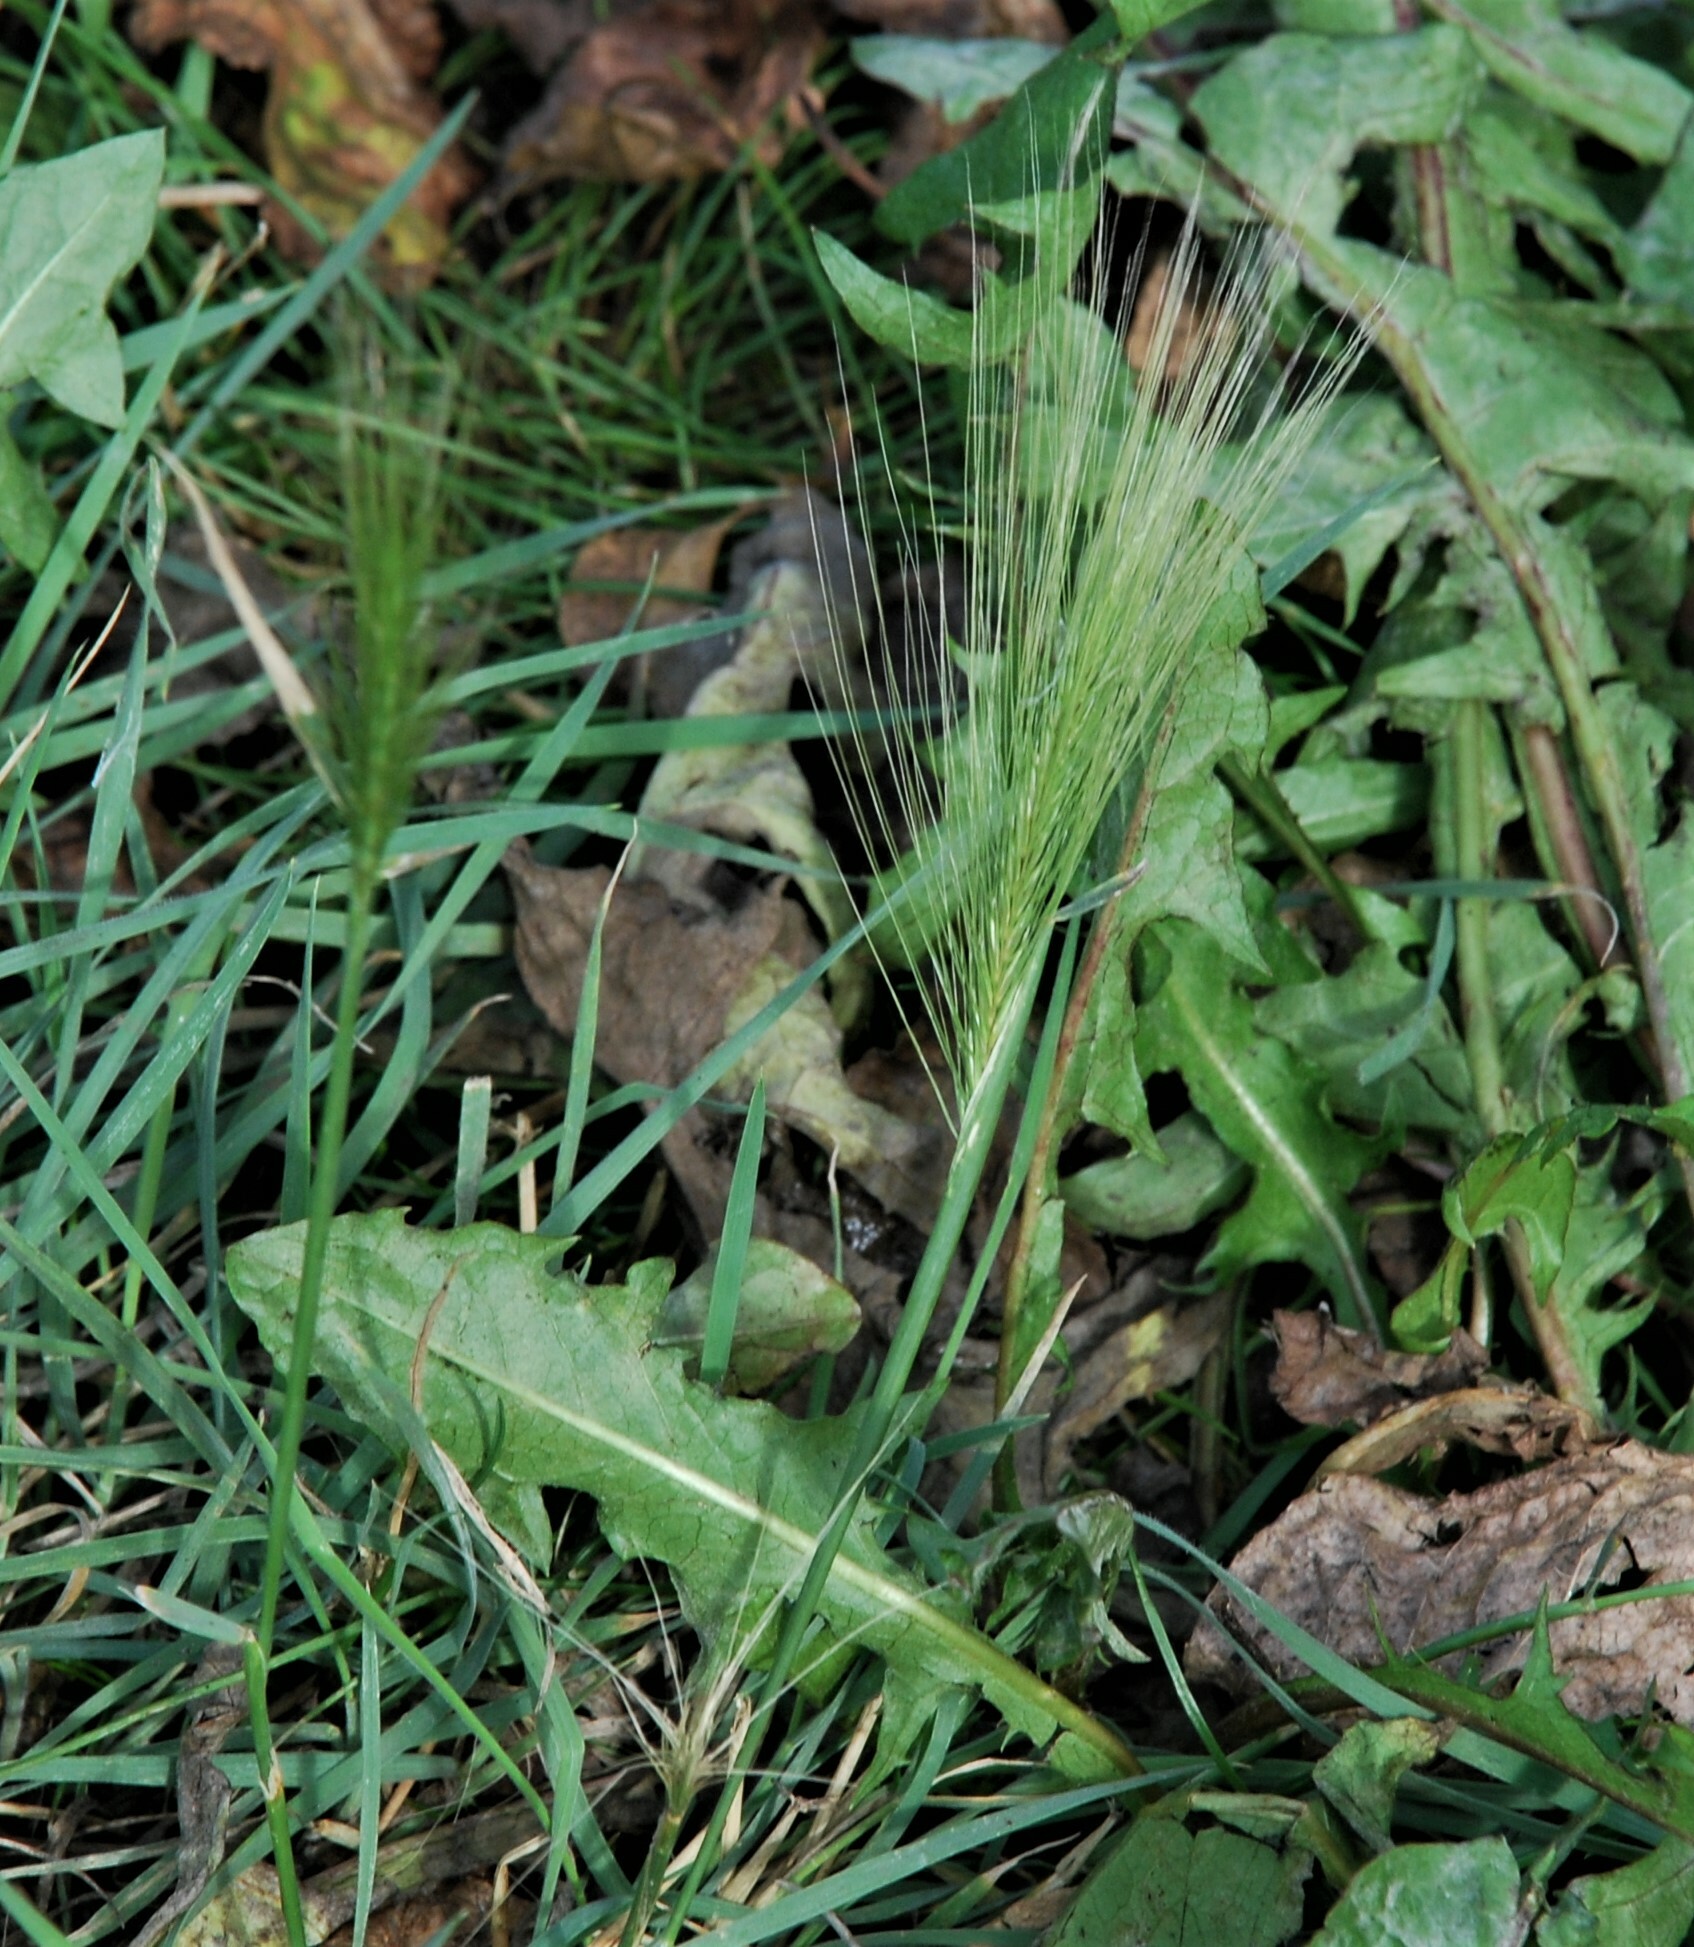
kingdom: Plantae
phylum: Tracheophyta
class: Liliopsida
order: Poales
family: Poaceae
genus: Hordeum
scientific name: Hordeum jubatum
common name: Foxtail barley
